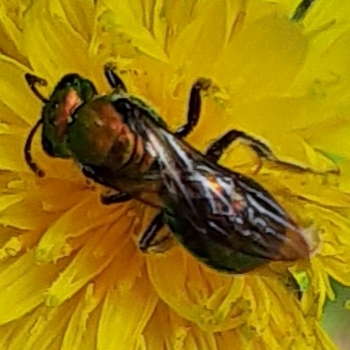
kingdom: Animalia
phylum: Arthropoda
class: Insecta
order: Hymenoptera
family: Halictidae
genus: Augochlora
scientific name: Augochlora pura
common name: Pure green sweat bee
